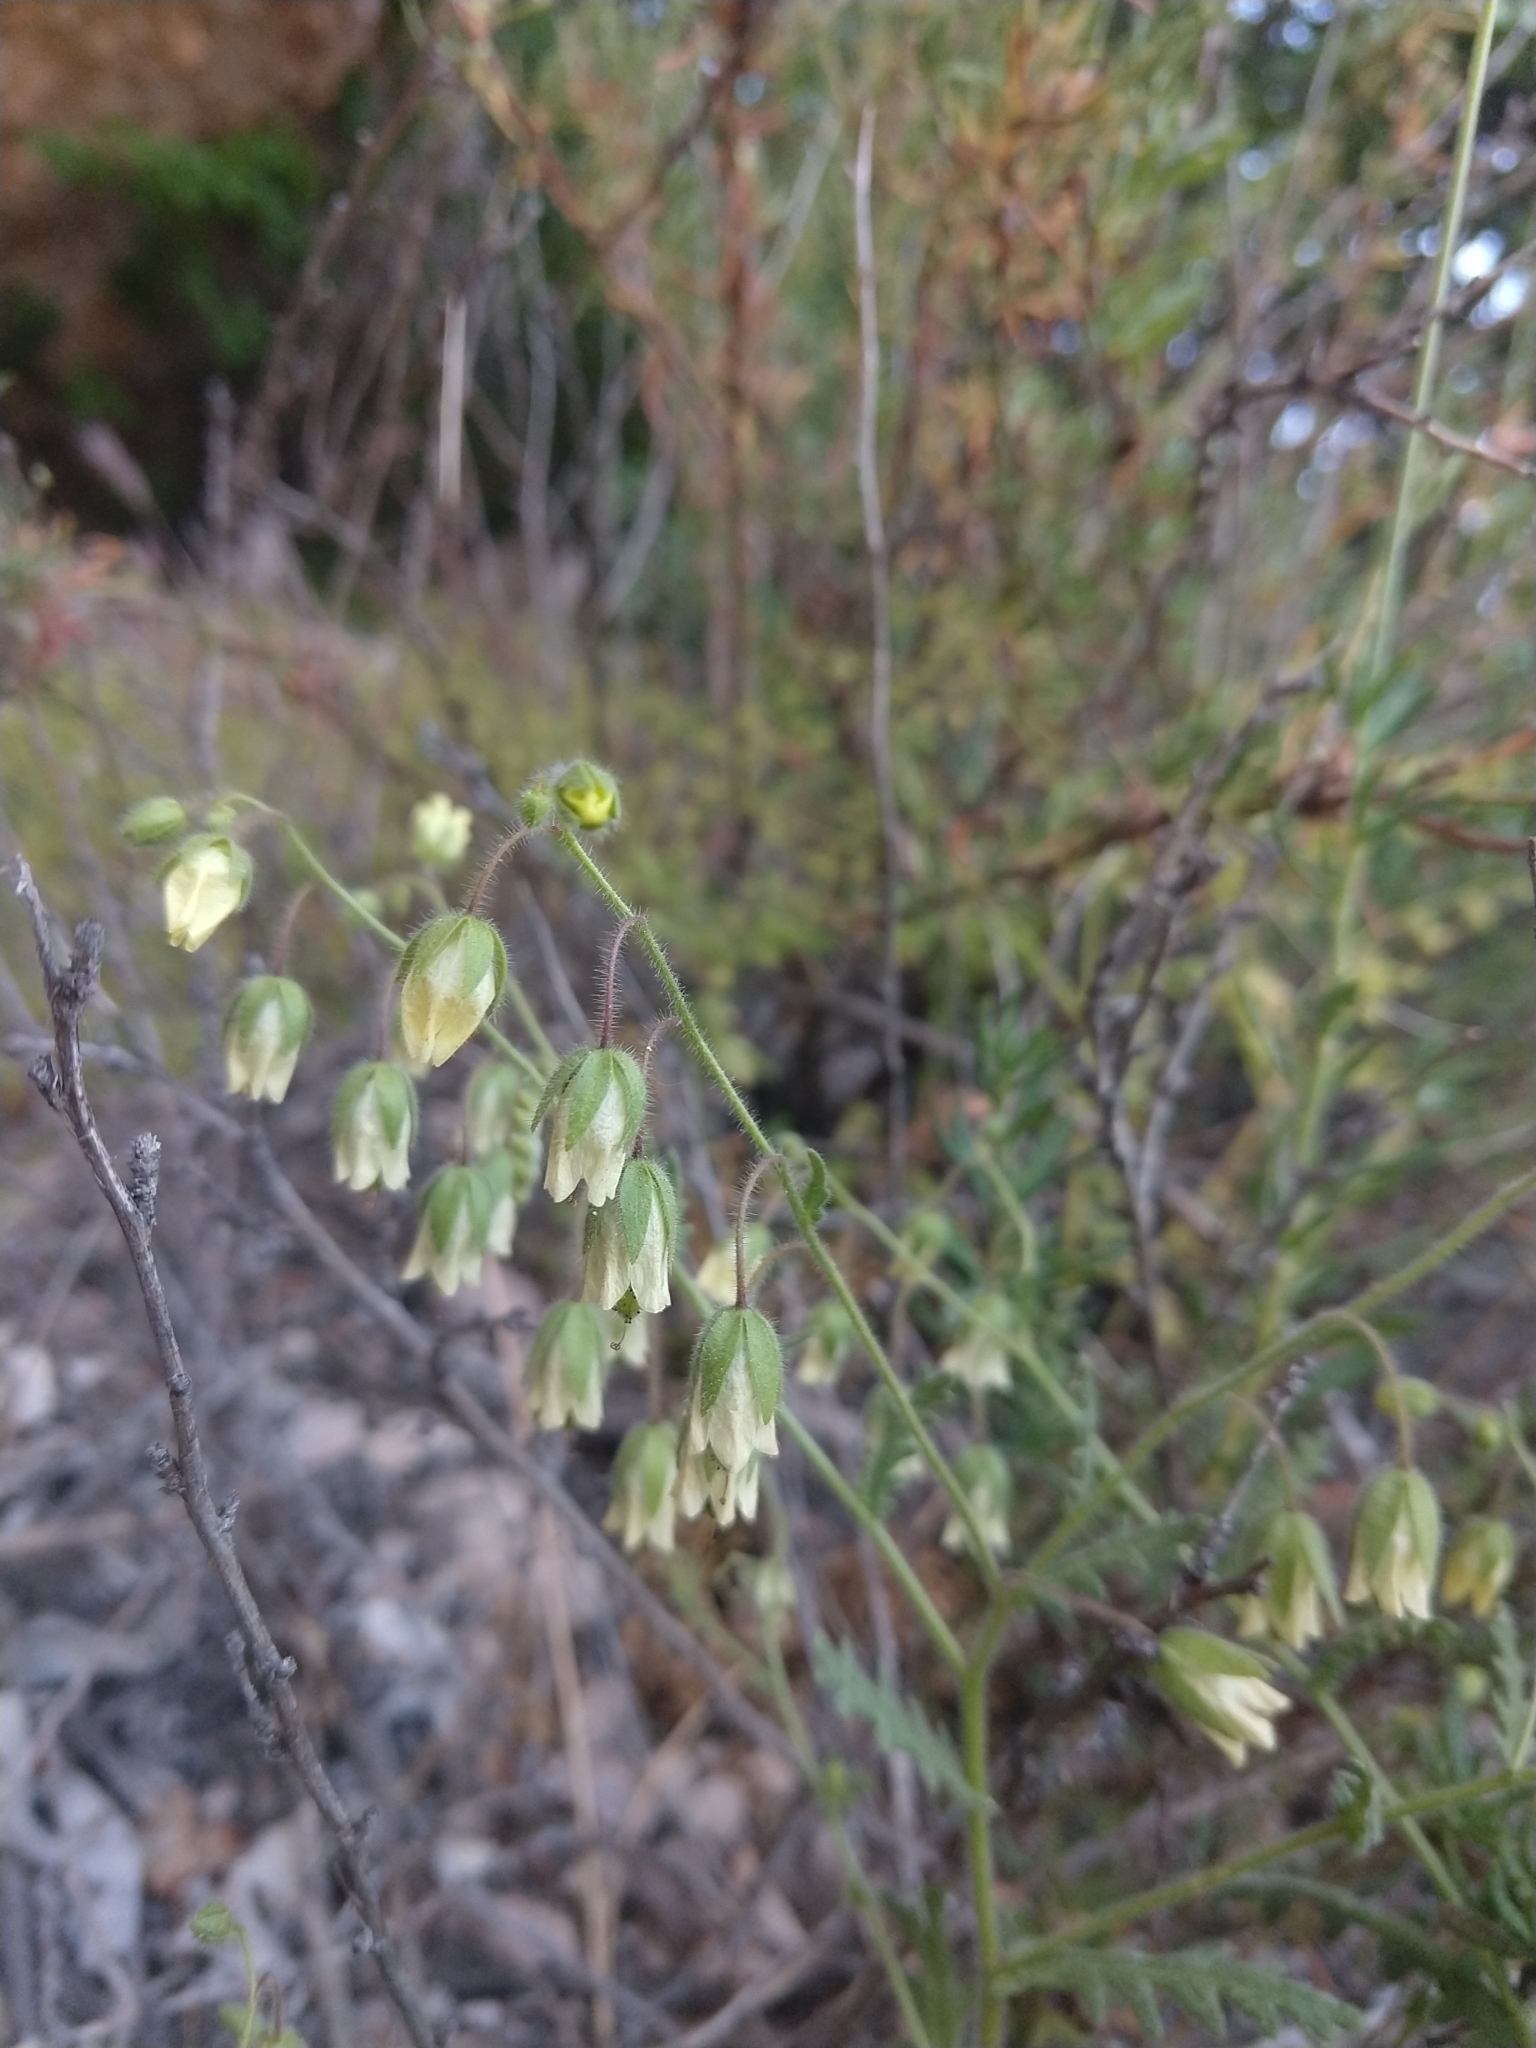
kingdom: Plantae
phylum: Tracheophyta
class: Magnoliopsida
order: Boraginales
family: Hydrophyllaceae
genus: Emmenanthe
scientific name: Emmenanthe penduliflora
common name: Whispering-bells
